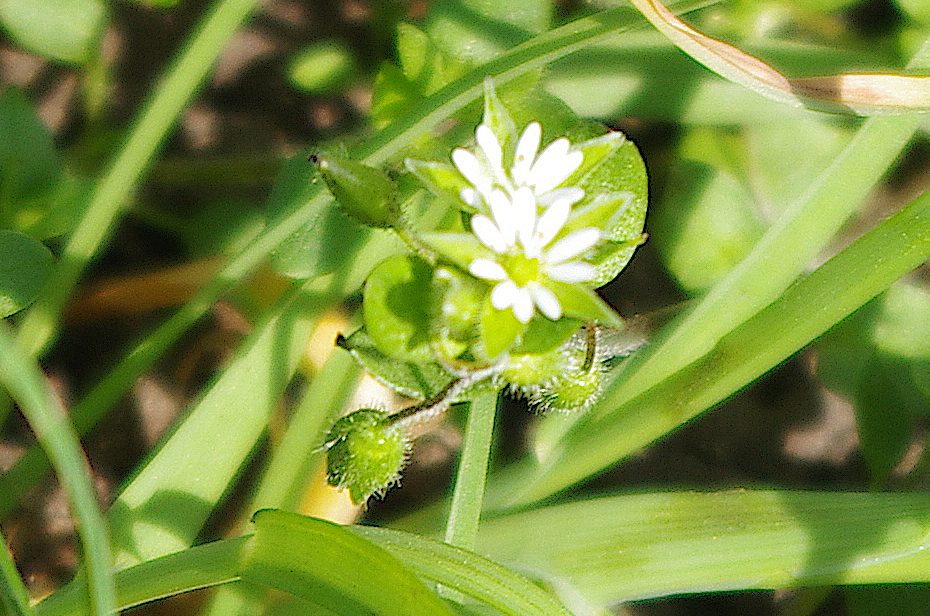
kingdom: Plantae
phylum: Tracheophyta
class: Magnoliopsida
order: Caryophyllales
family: Caryophyllaceae
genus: Stellaria
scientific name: Stellaria media
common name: Common chickweed
